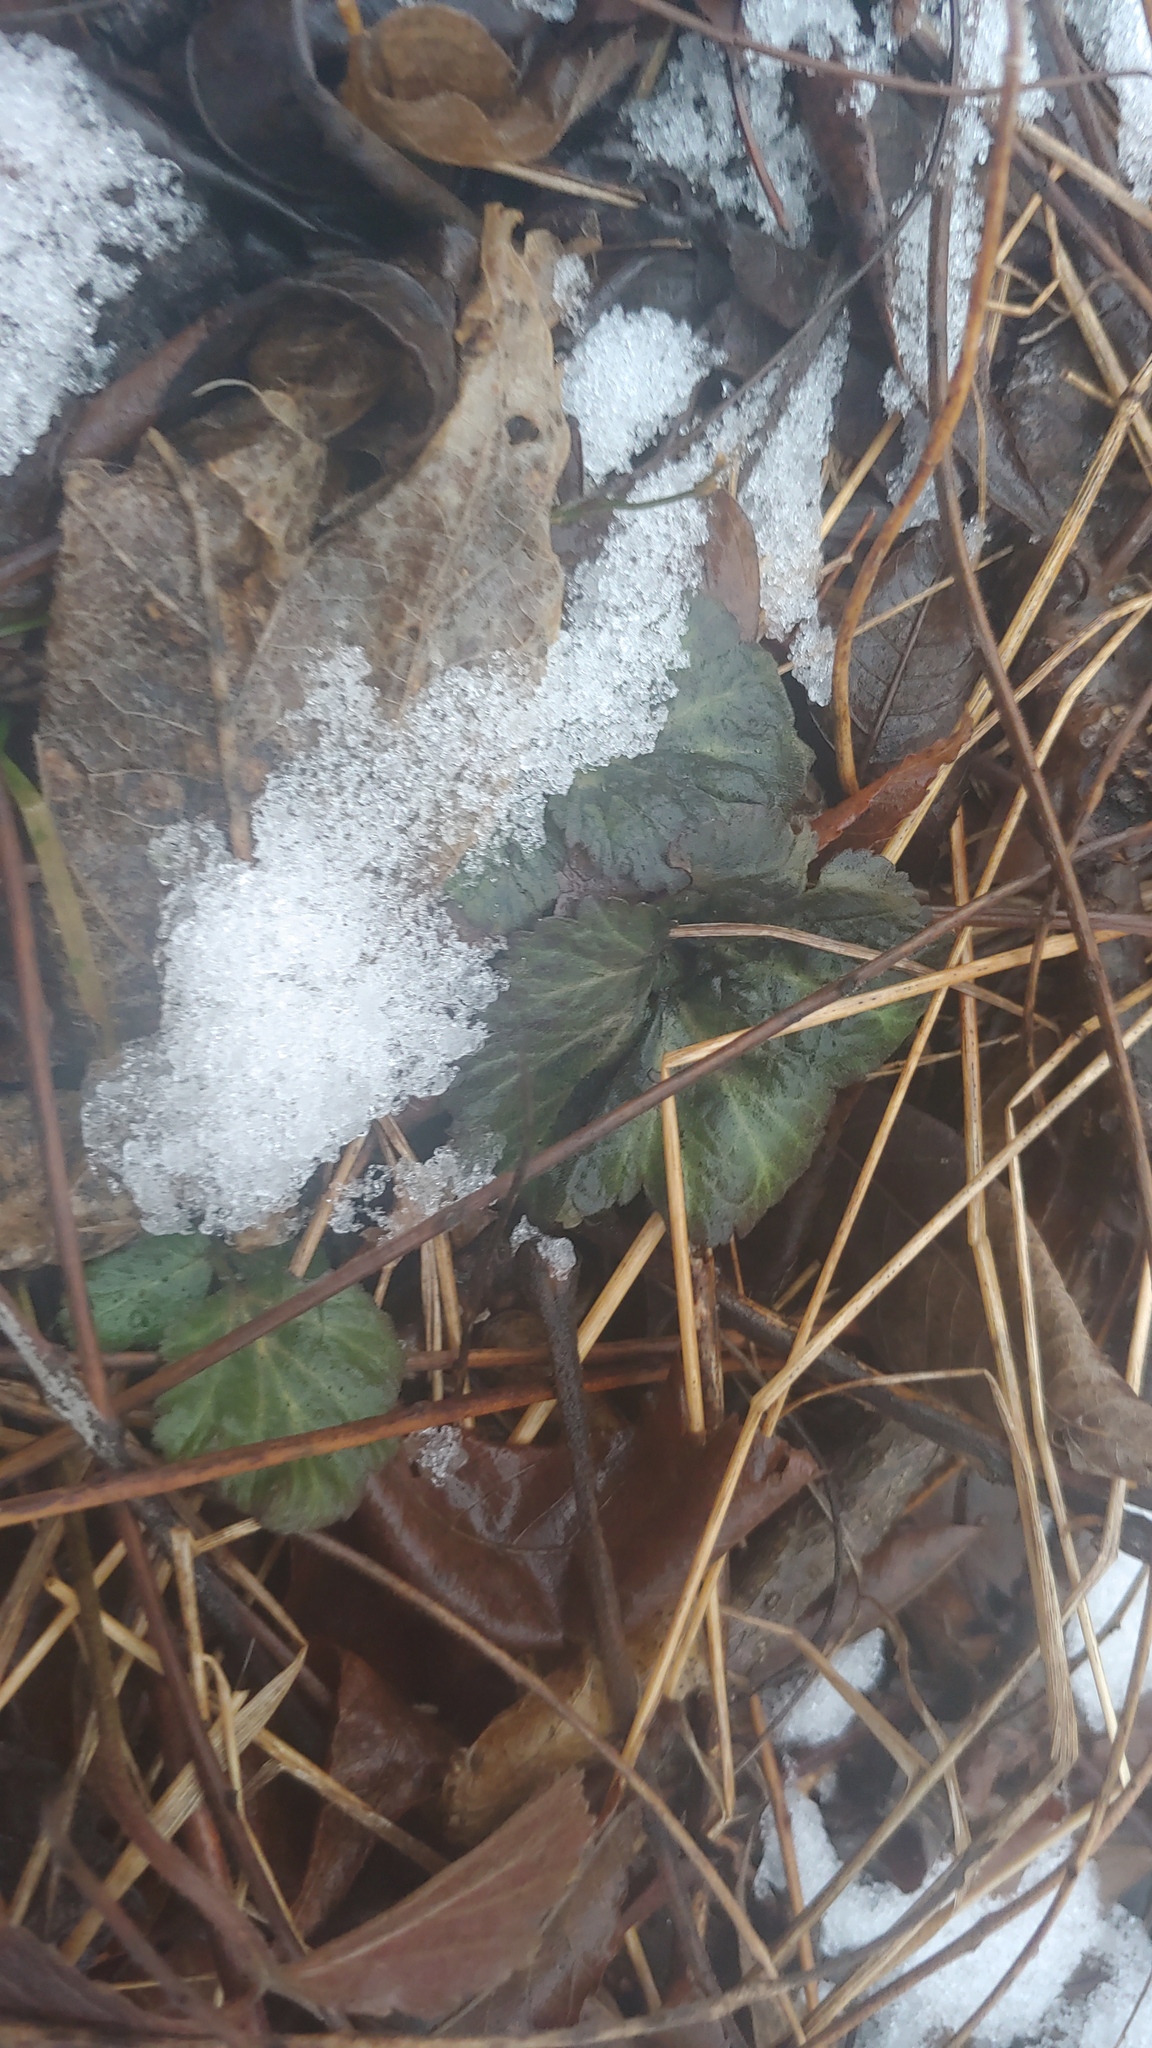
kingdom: Plantae
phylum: Tracheophyta
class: Magnoliopsida
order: Rosales
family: Rosaceae
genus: Geum
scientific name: Geum canadense
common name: White avens
